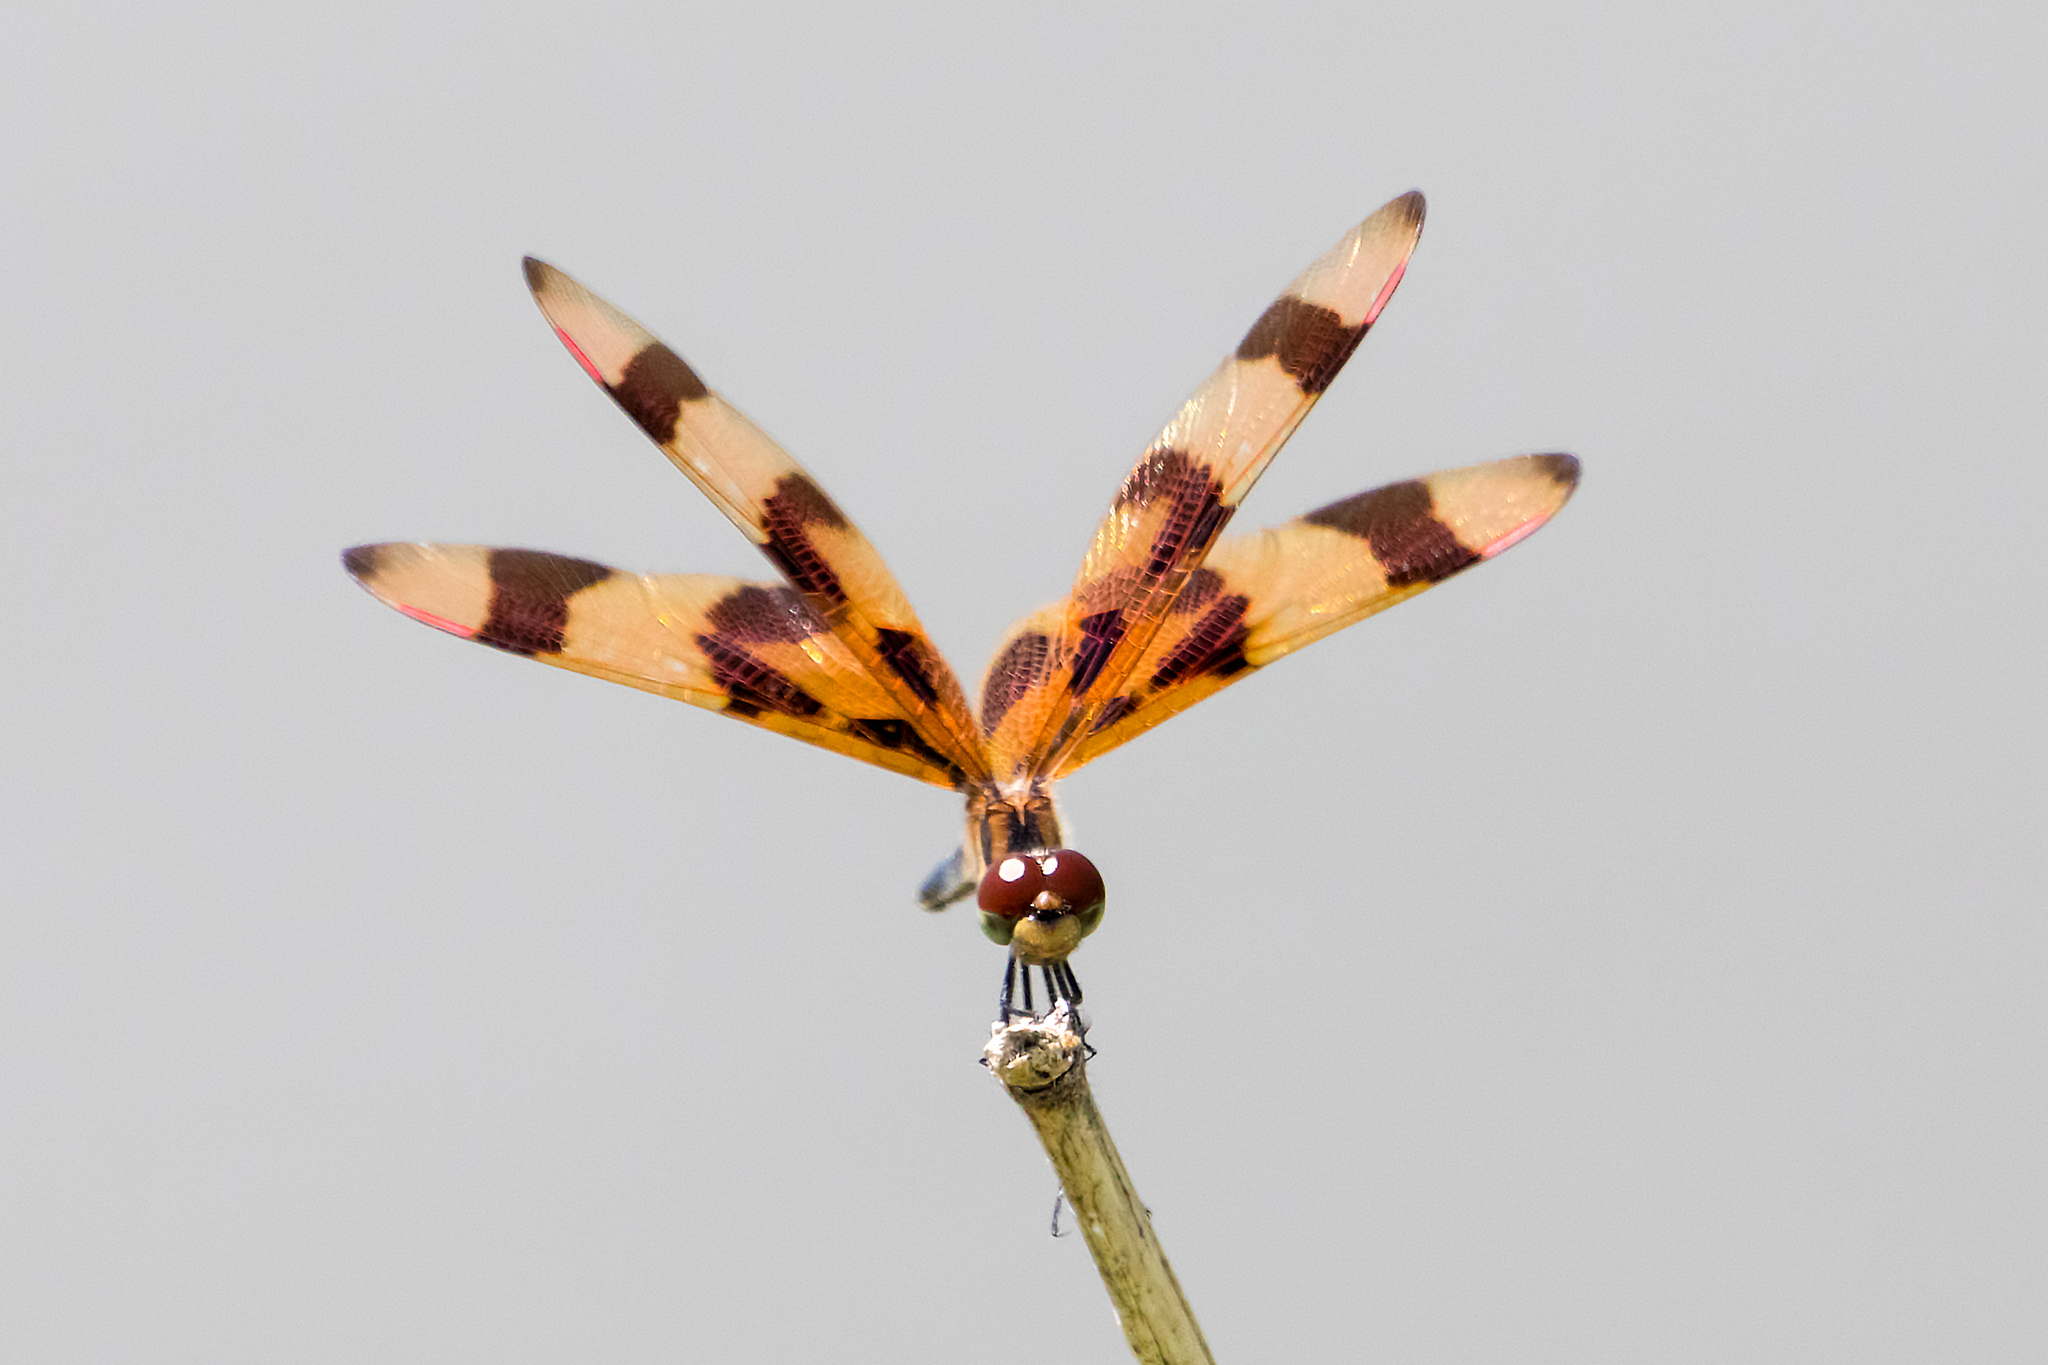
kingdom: Animalia
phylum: Arthropoda
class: Insecta
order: Odonata
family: Libellulidae
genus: Celithemis
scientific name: Celithemis eponina
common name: Halloween pennant
